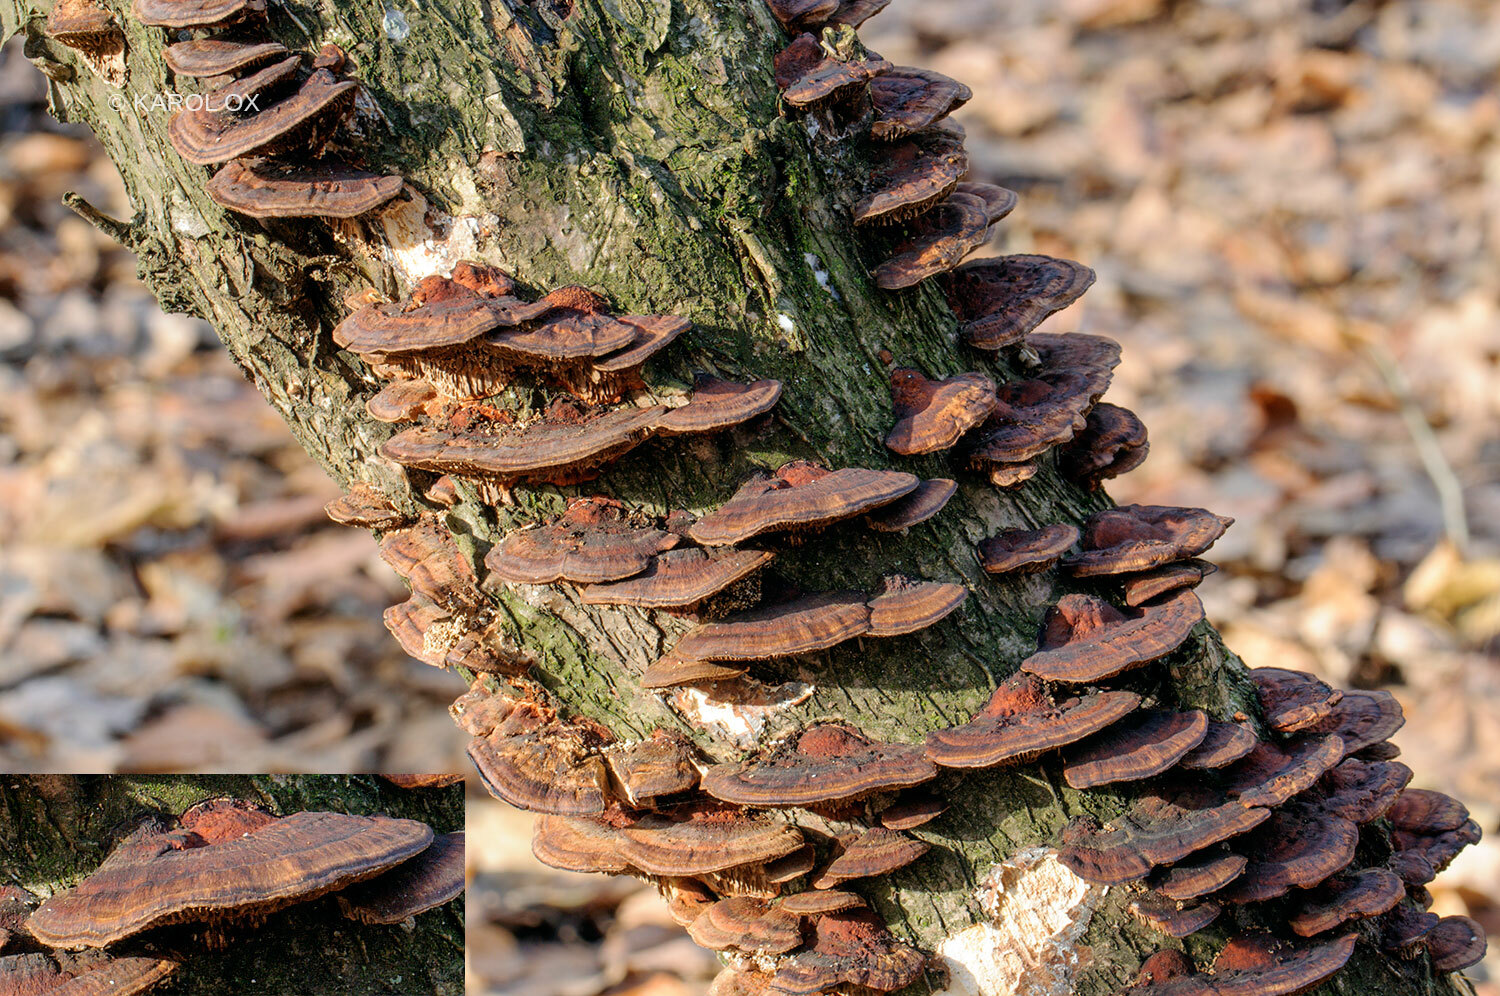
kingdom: Fungi
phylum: Basidiomycota
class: Agaricomycetes
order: Polyporales
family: Polyporaceae
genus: Daedaleopsis
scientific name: Daedaleopsis tricolor
